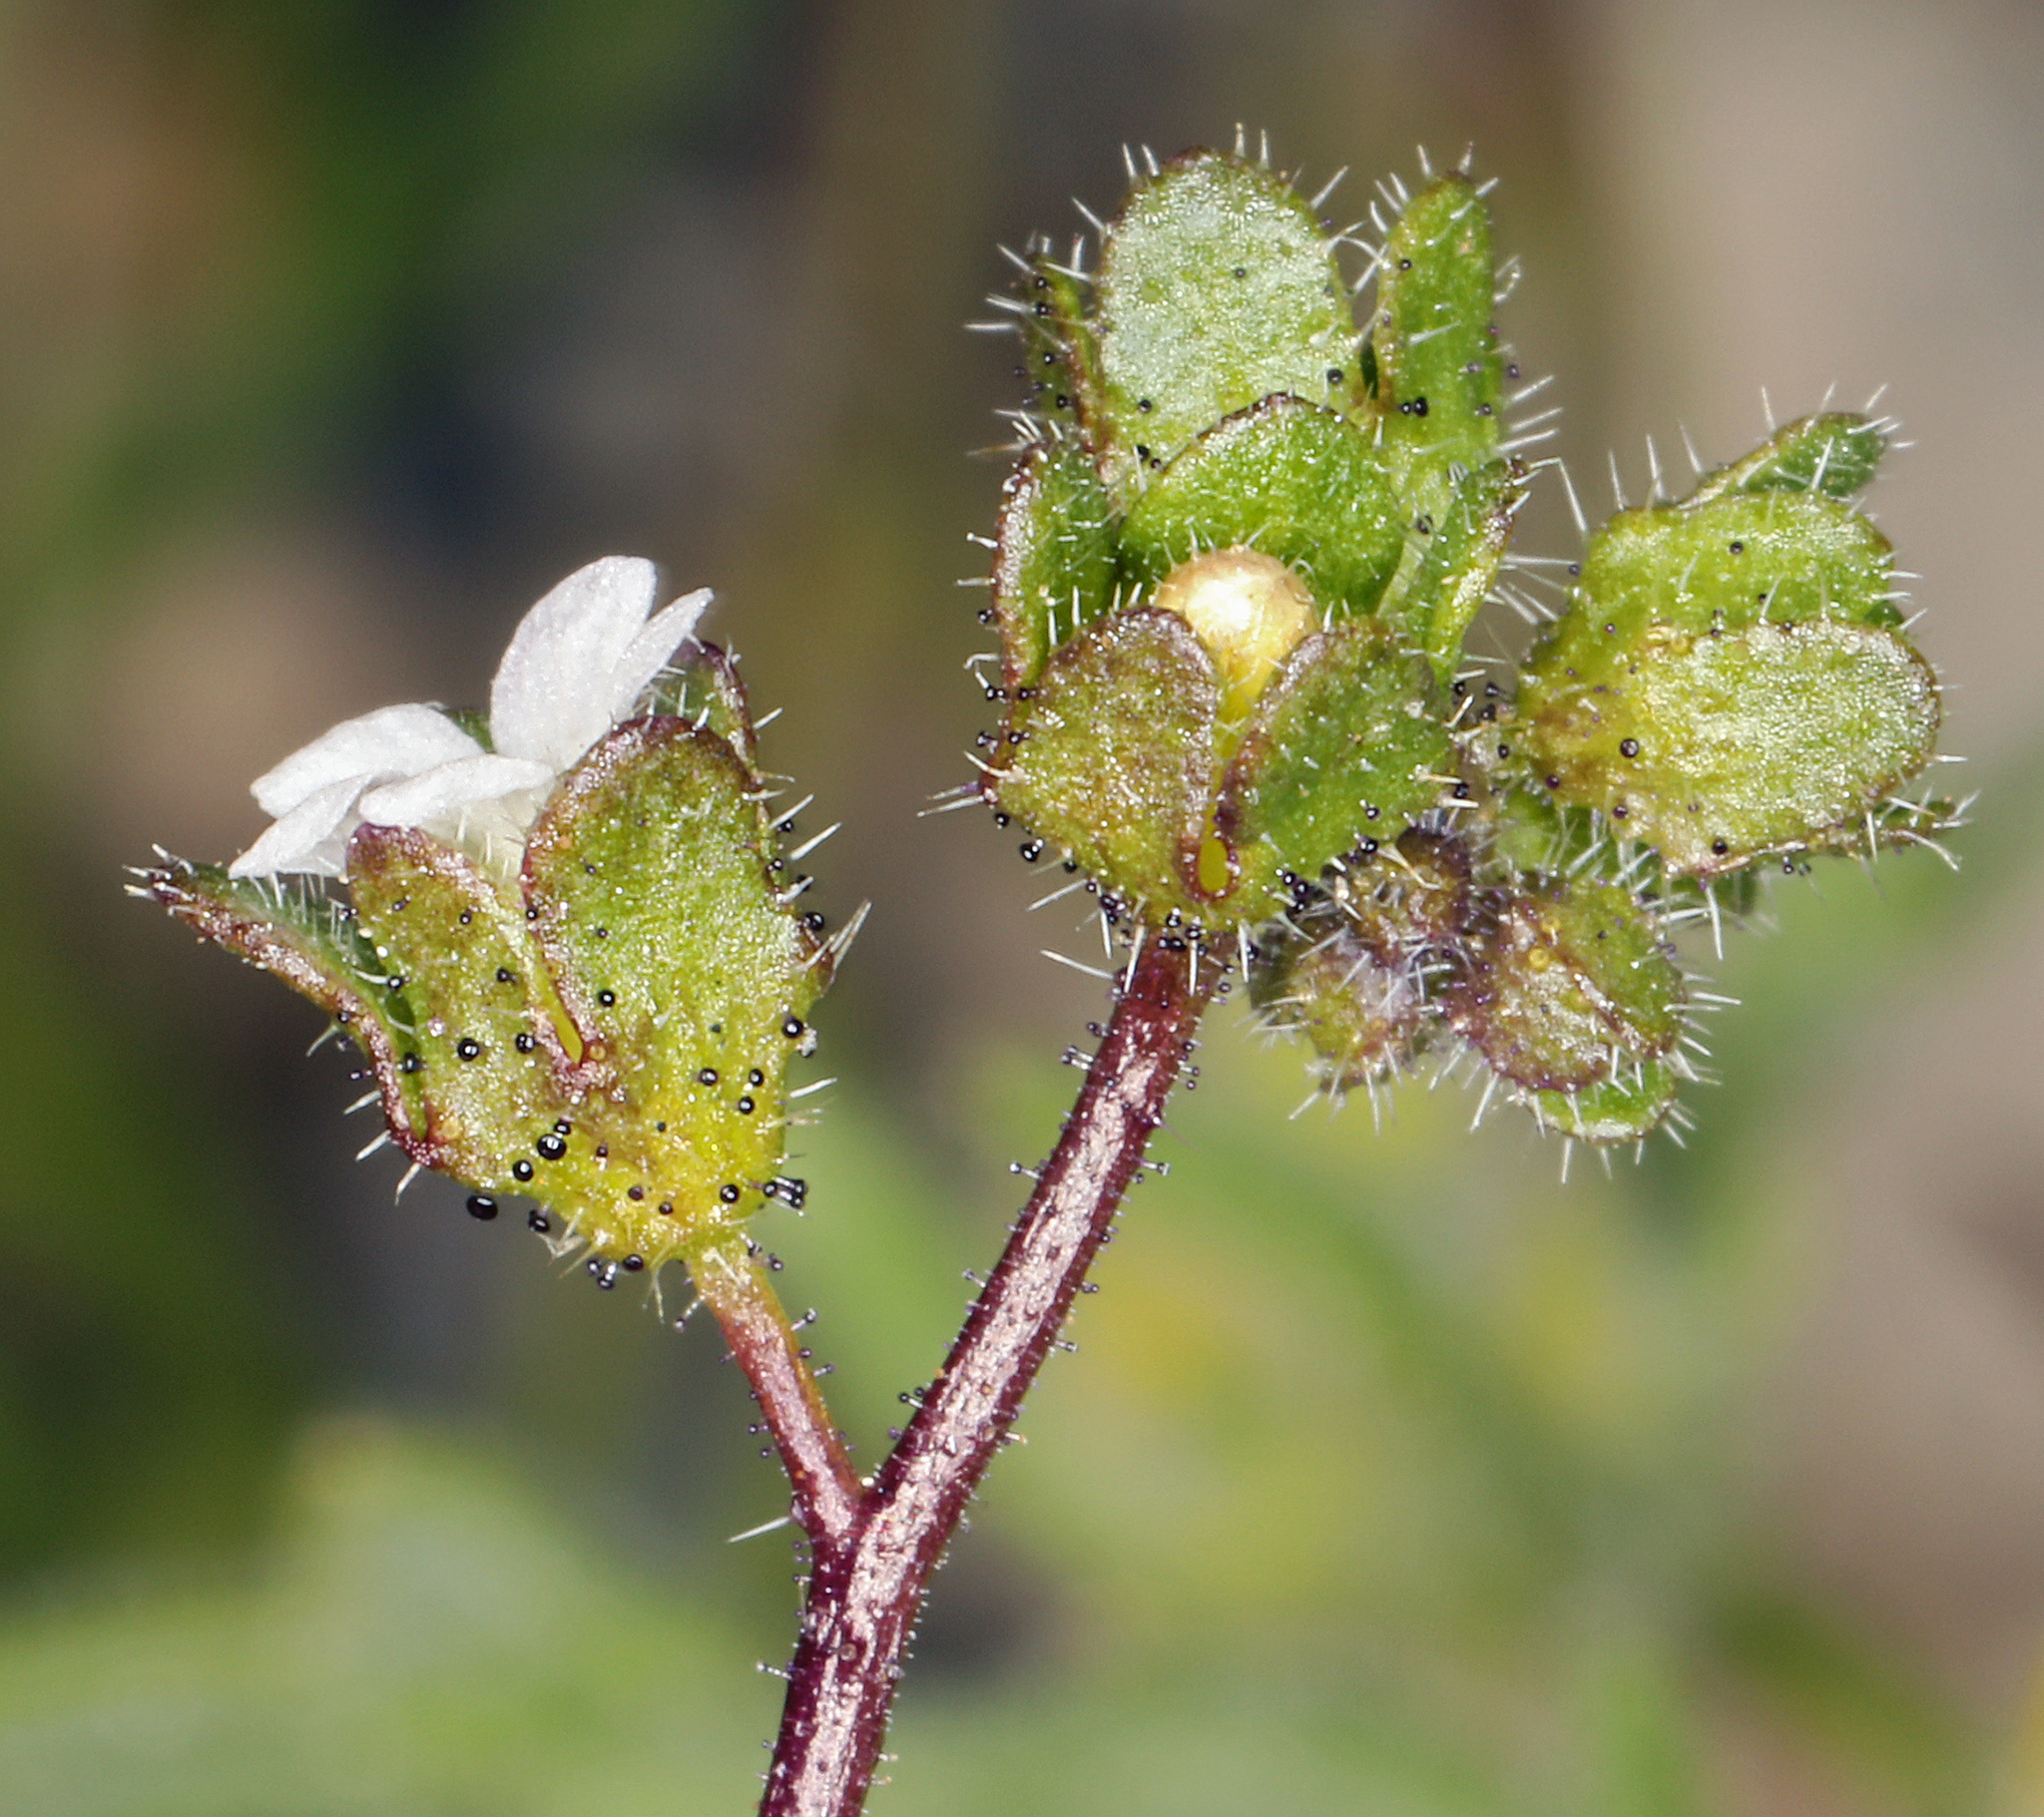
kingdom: Plantae
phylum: Tracheophyta
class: Magnoliopsida
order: Boraginales
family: Hydrophyllaceae
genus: Eucrypta
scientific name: Eucrypta micrantha
